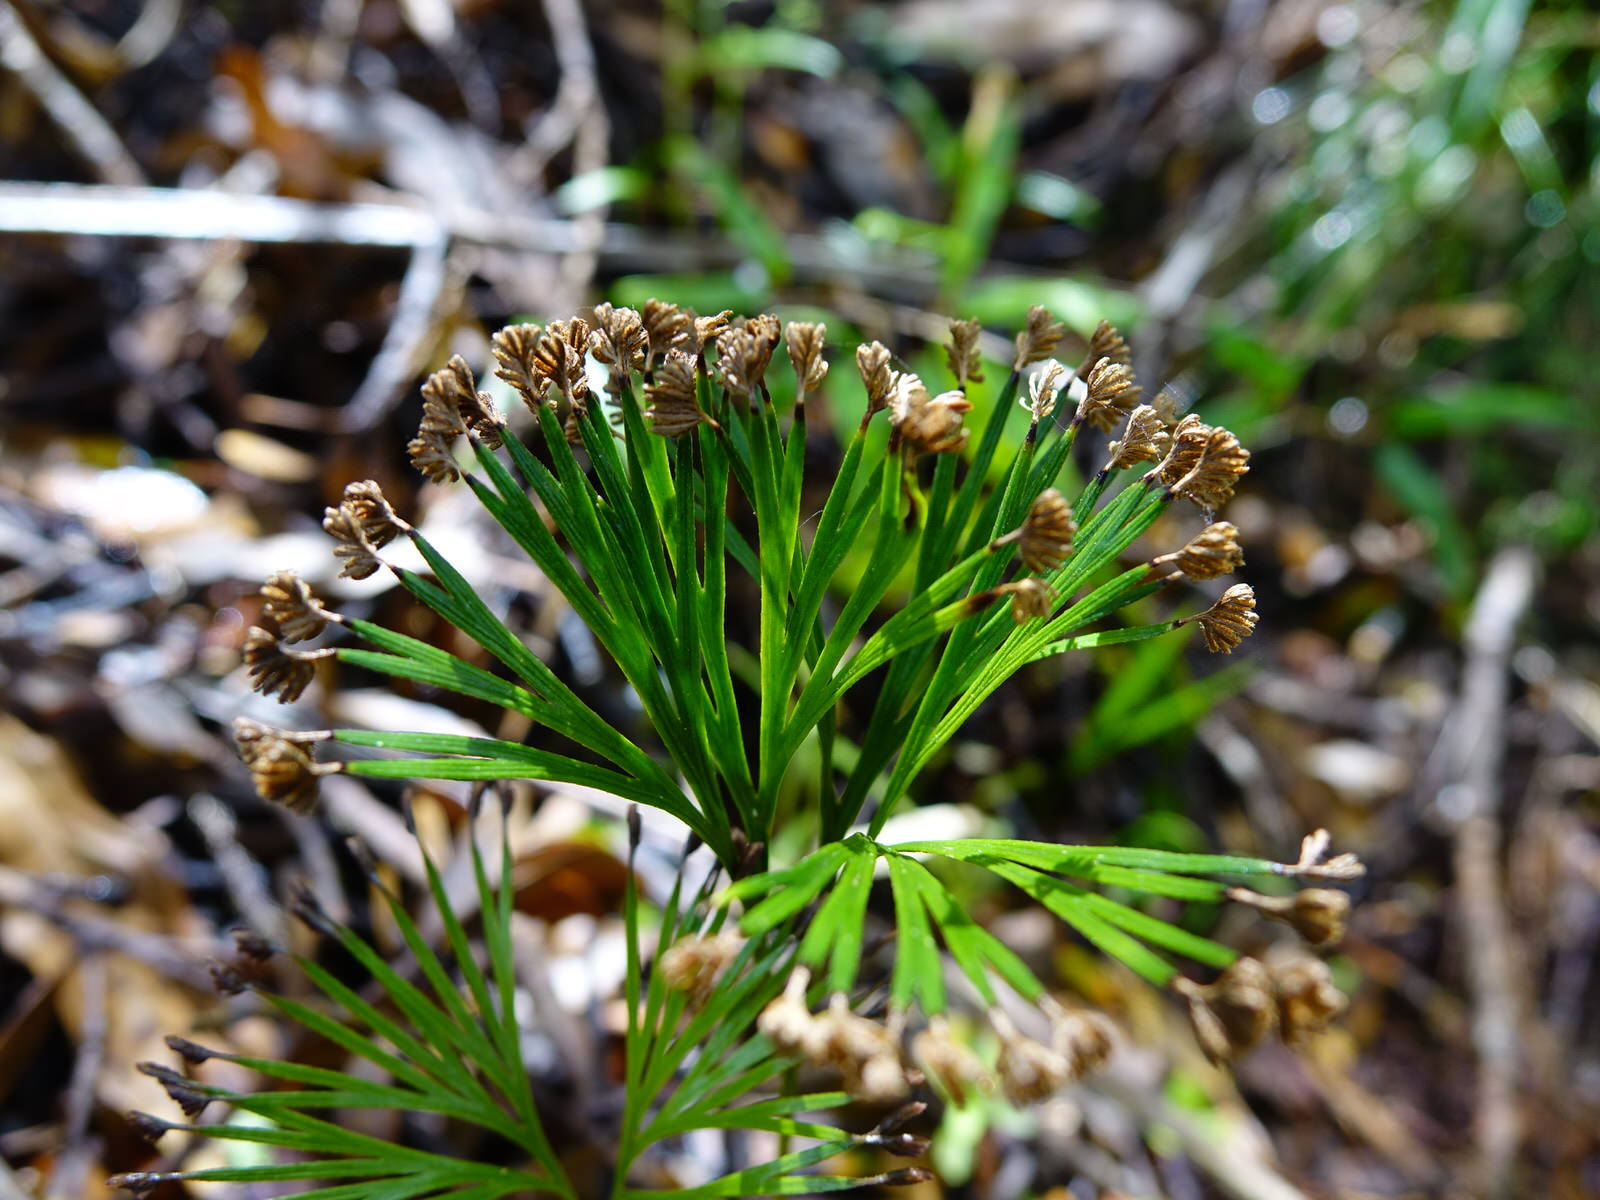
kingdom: Plantae
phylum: Tracheophyta
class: Polypodiopsida
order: Schizaeales
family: Schizaeaceae
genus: Schizaea
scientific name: Schizaea dichotoma
